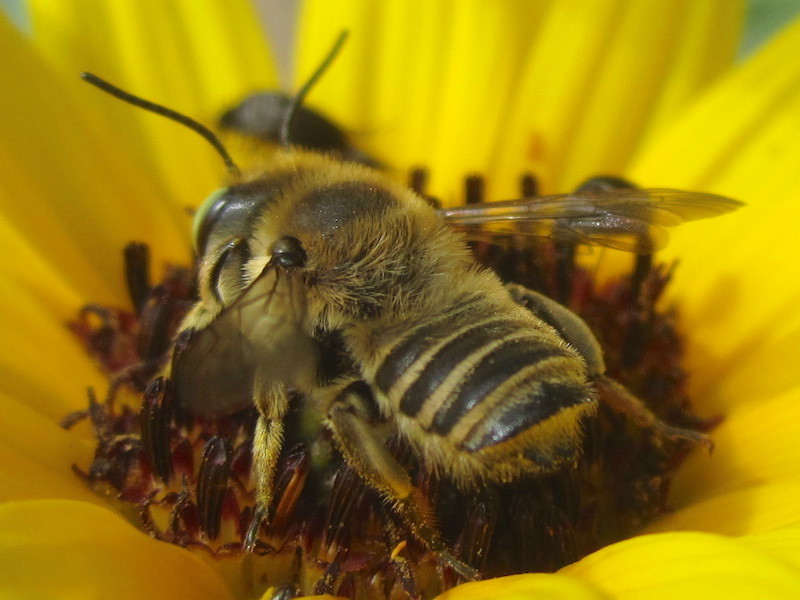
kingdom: Animalia
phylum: Arthropoda
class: Insecta
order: Hymenoptera
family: Megachilidae
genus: Megachile
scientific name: Megachile parallela
